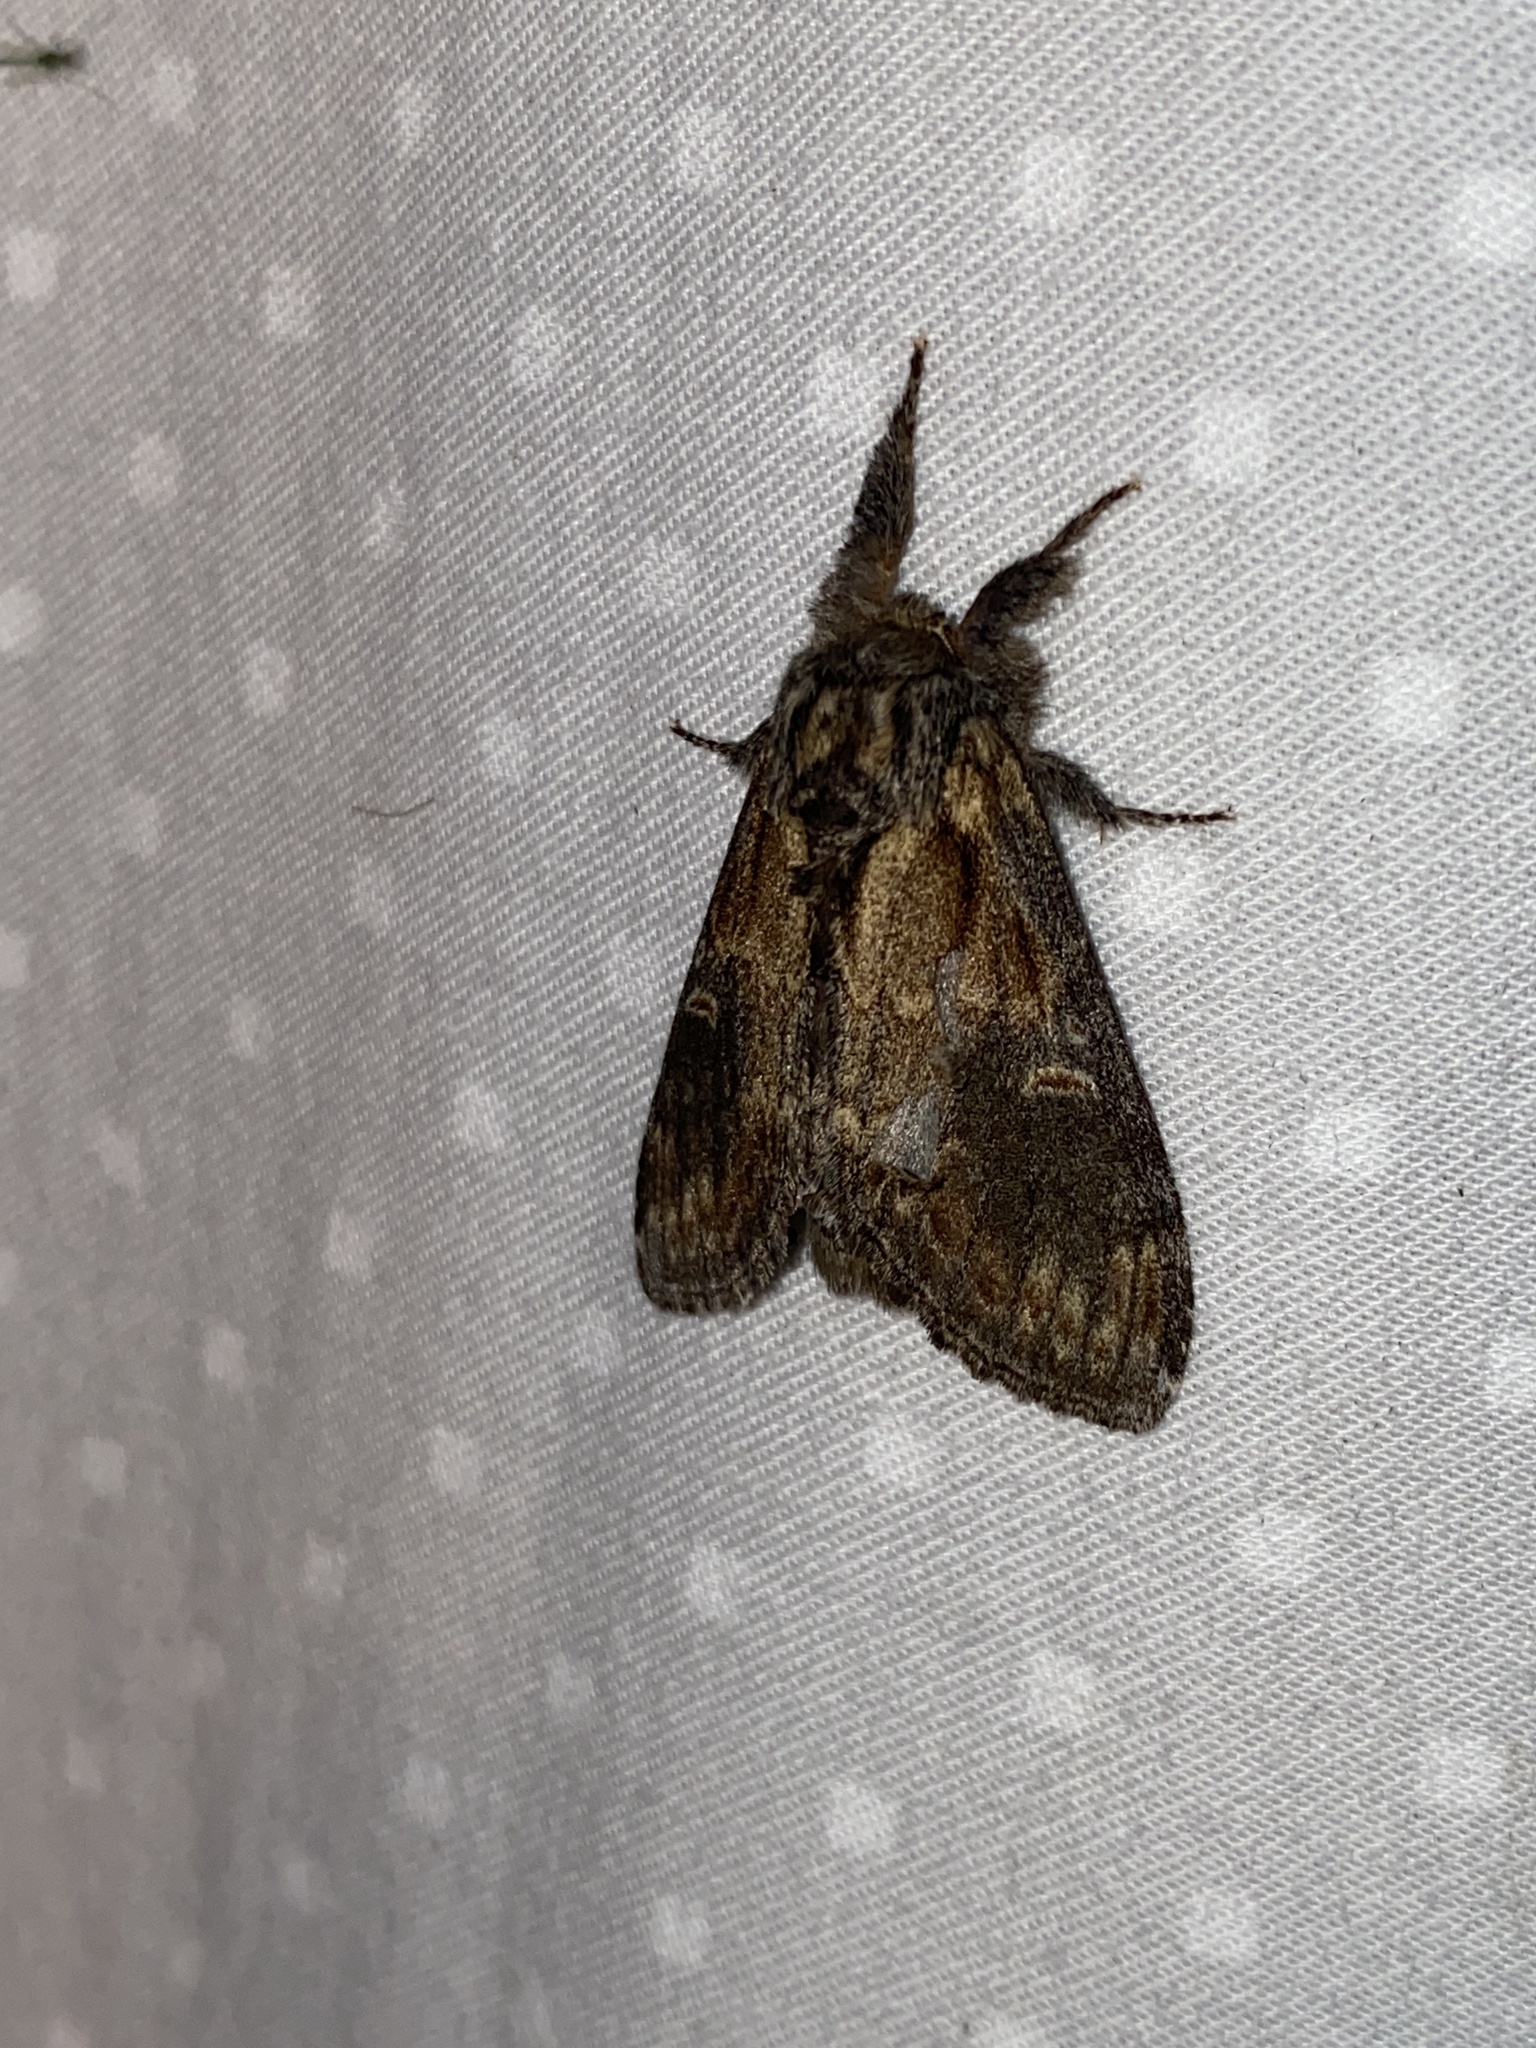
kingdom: Animalia
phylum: Arthropoda
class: Insecta
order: Lepidoptera
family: Notodontidae
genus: Notodonta
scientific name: Notodonta scitipennis
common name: Finned-willow prominent moth
